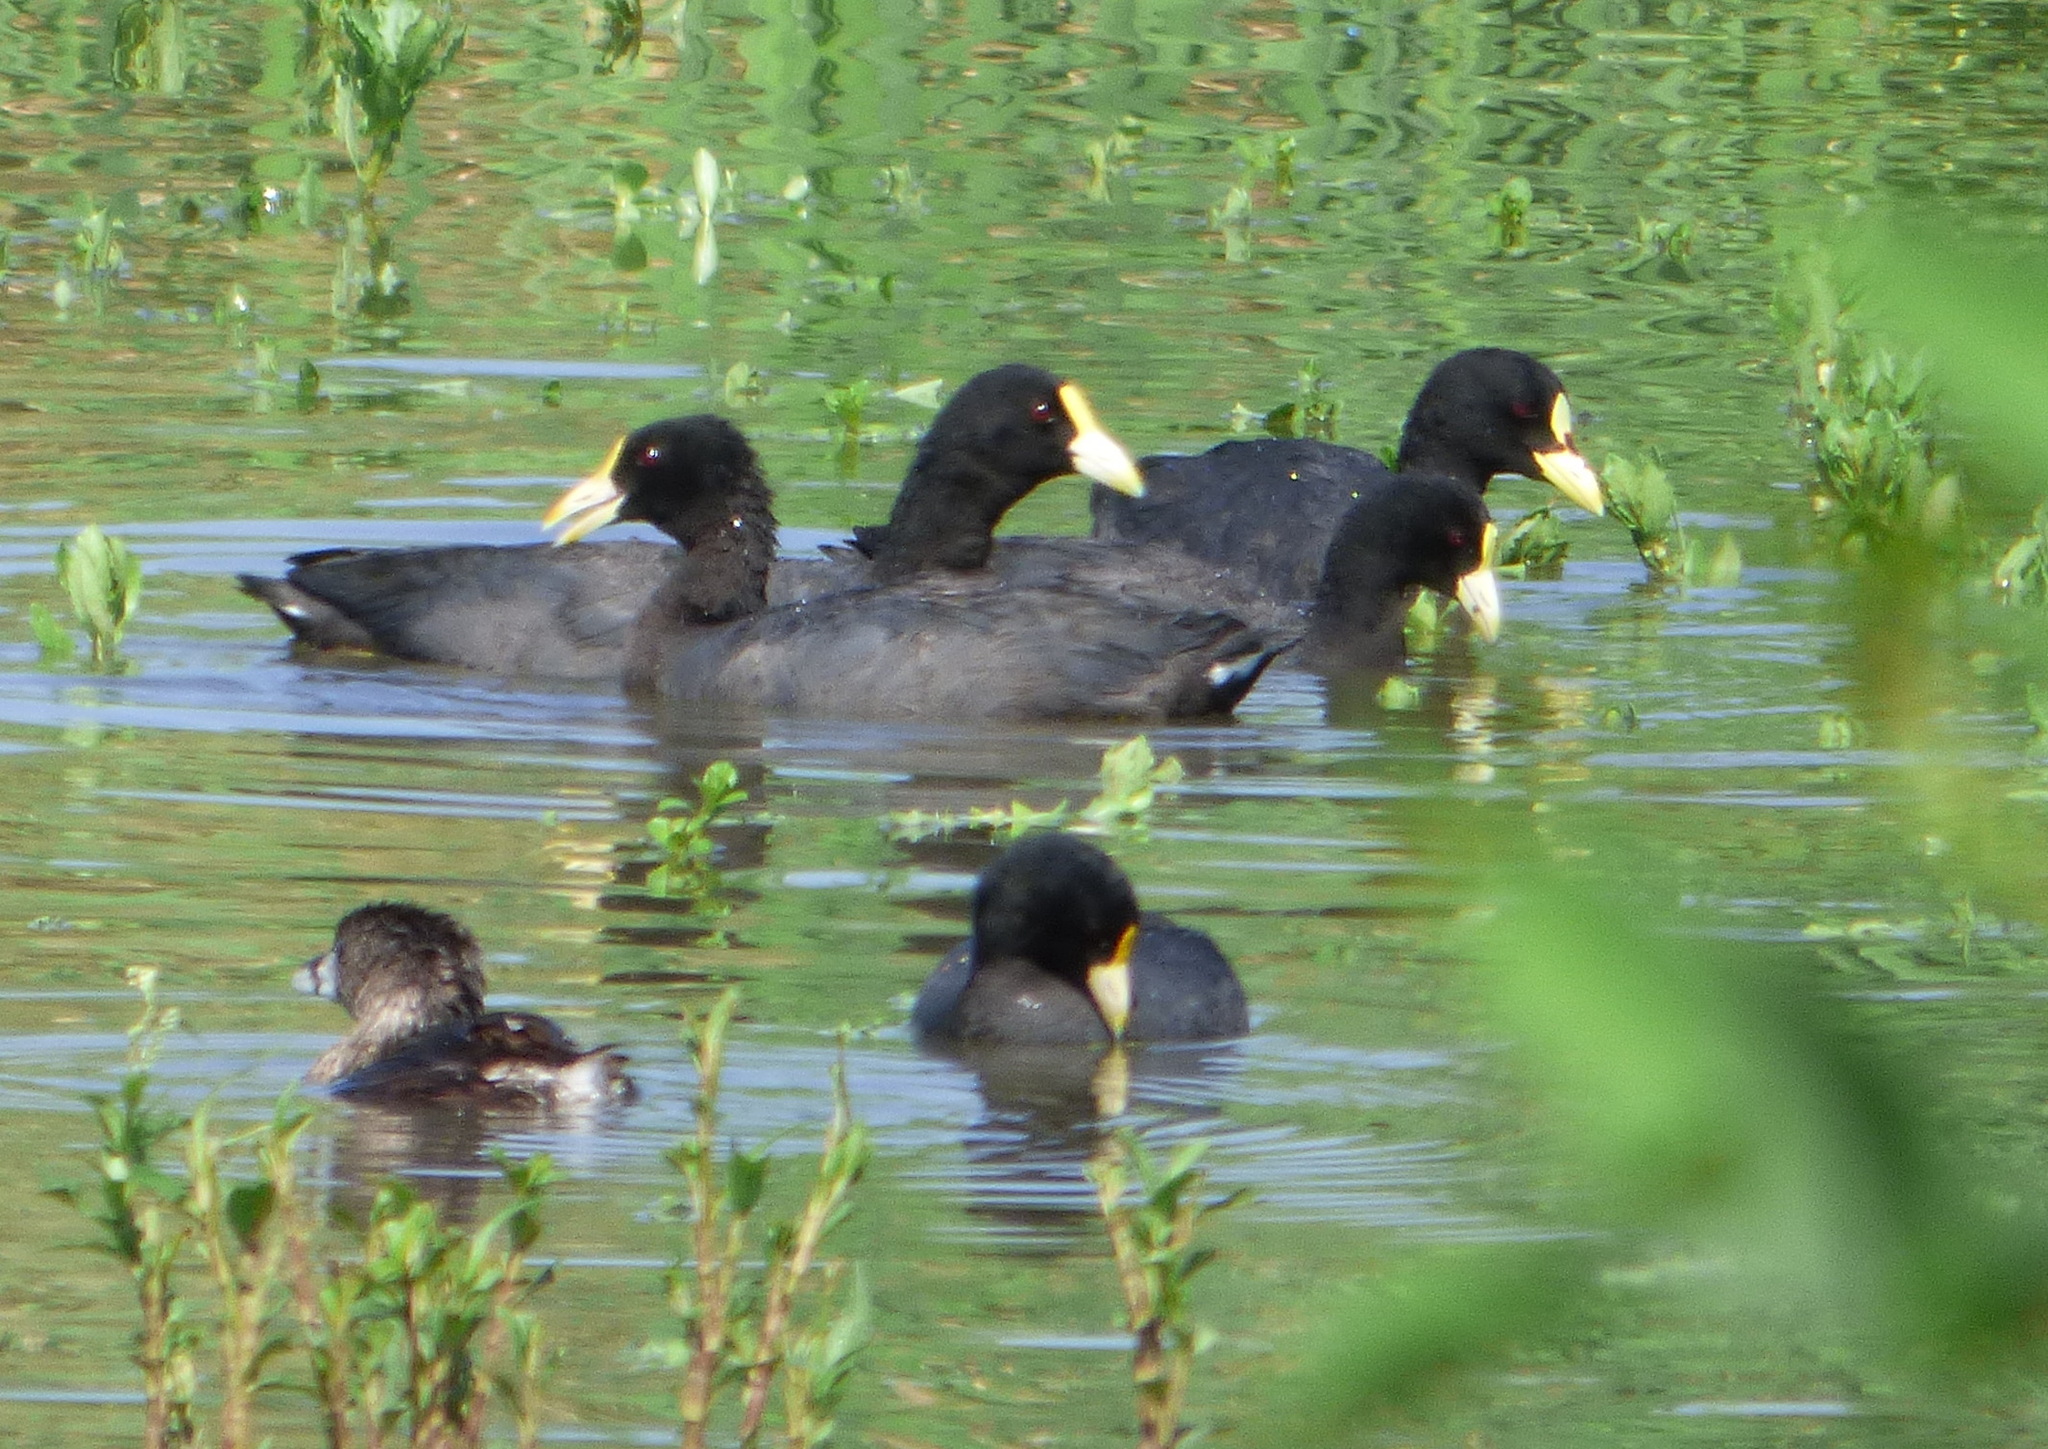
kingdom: Animalia
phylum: Chordata
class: Aves
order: Gruiformes
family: Rallidae
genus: Fulica
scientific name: Fulica armillata
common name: Red-gartered coot
